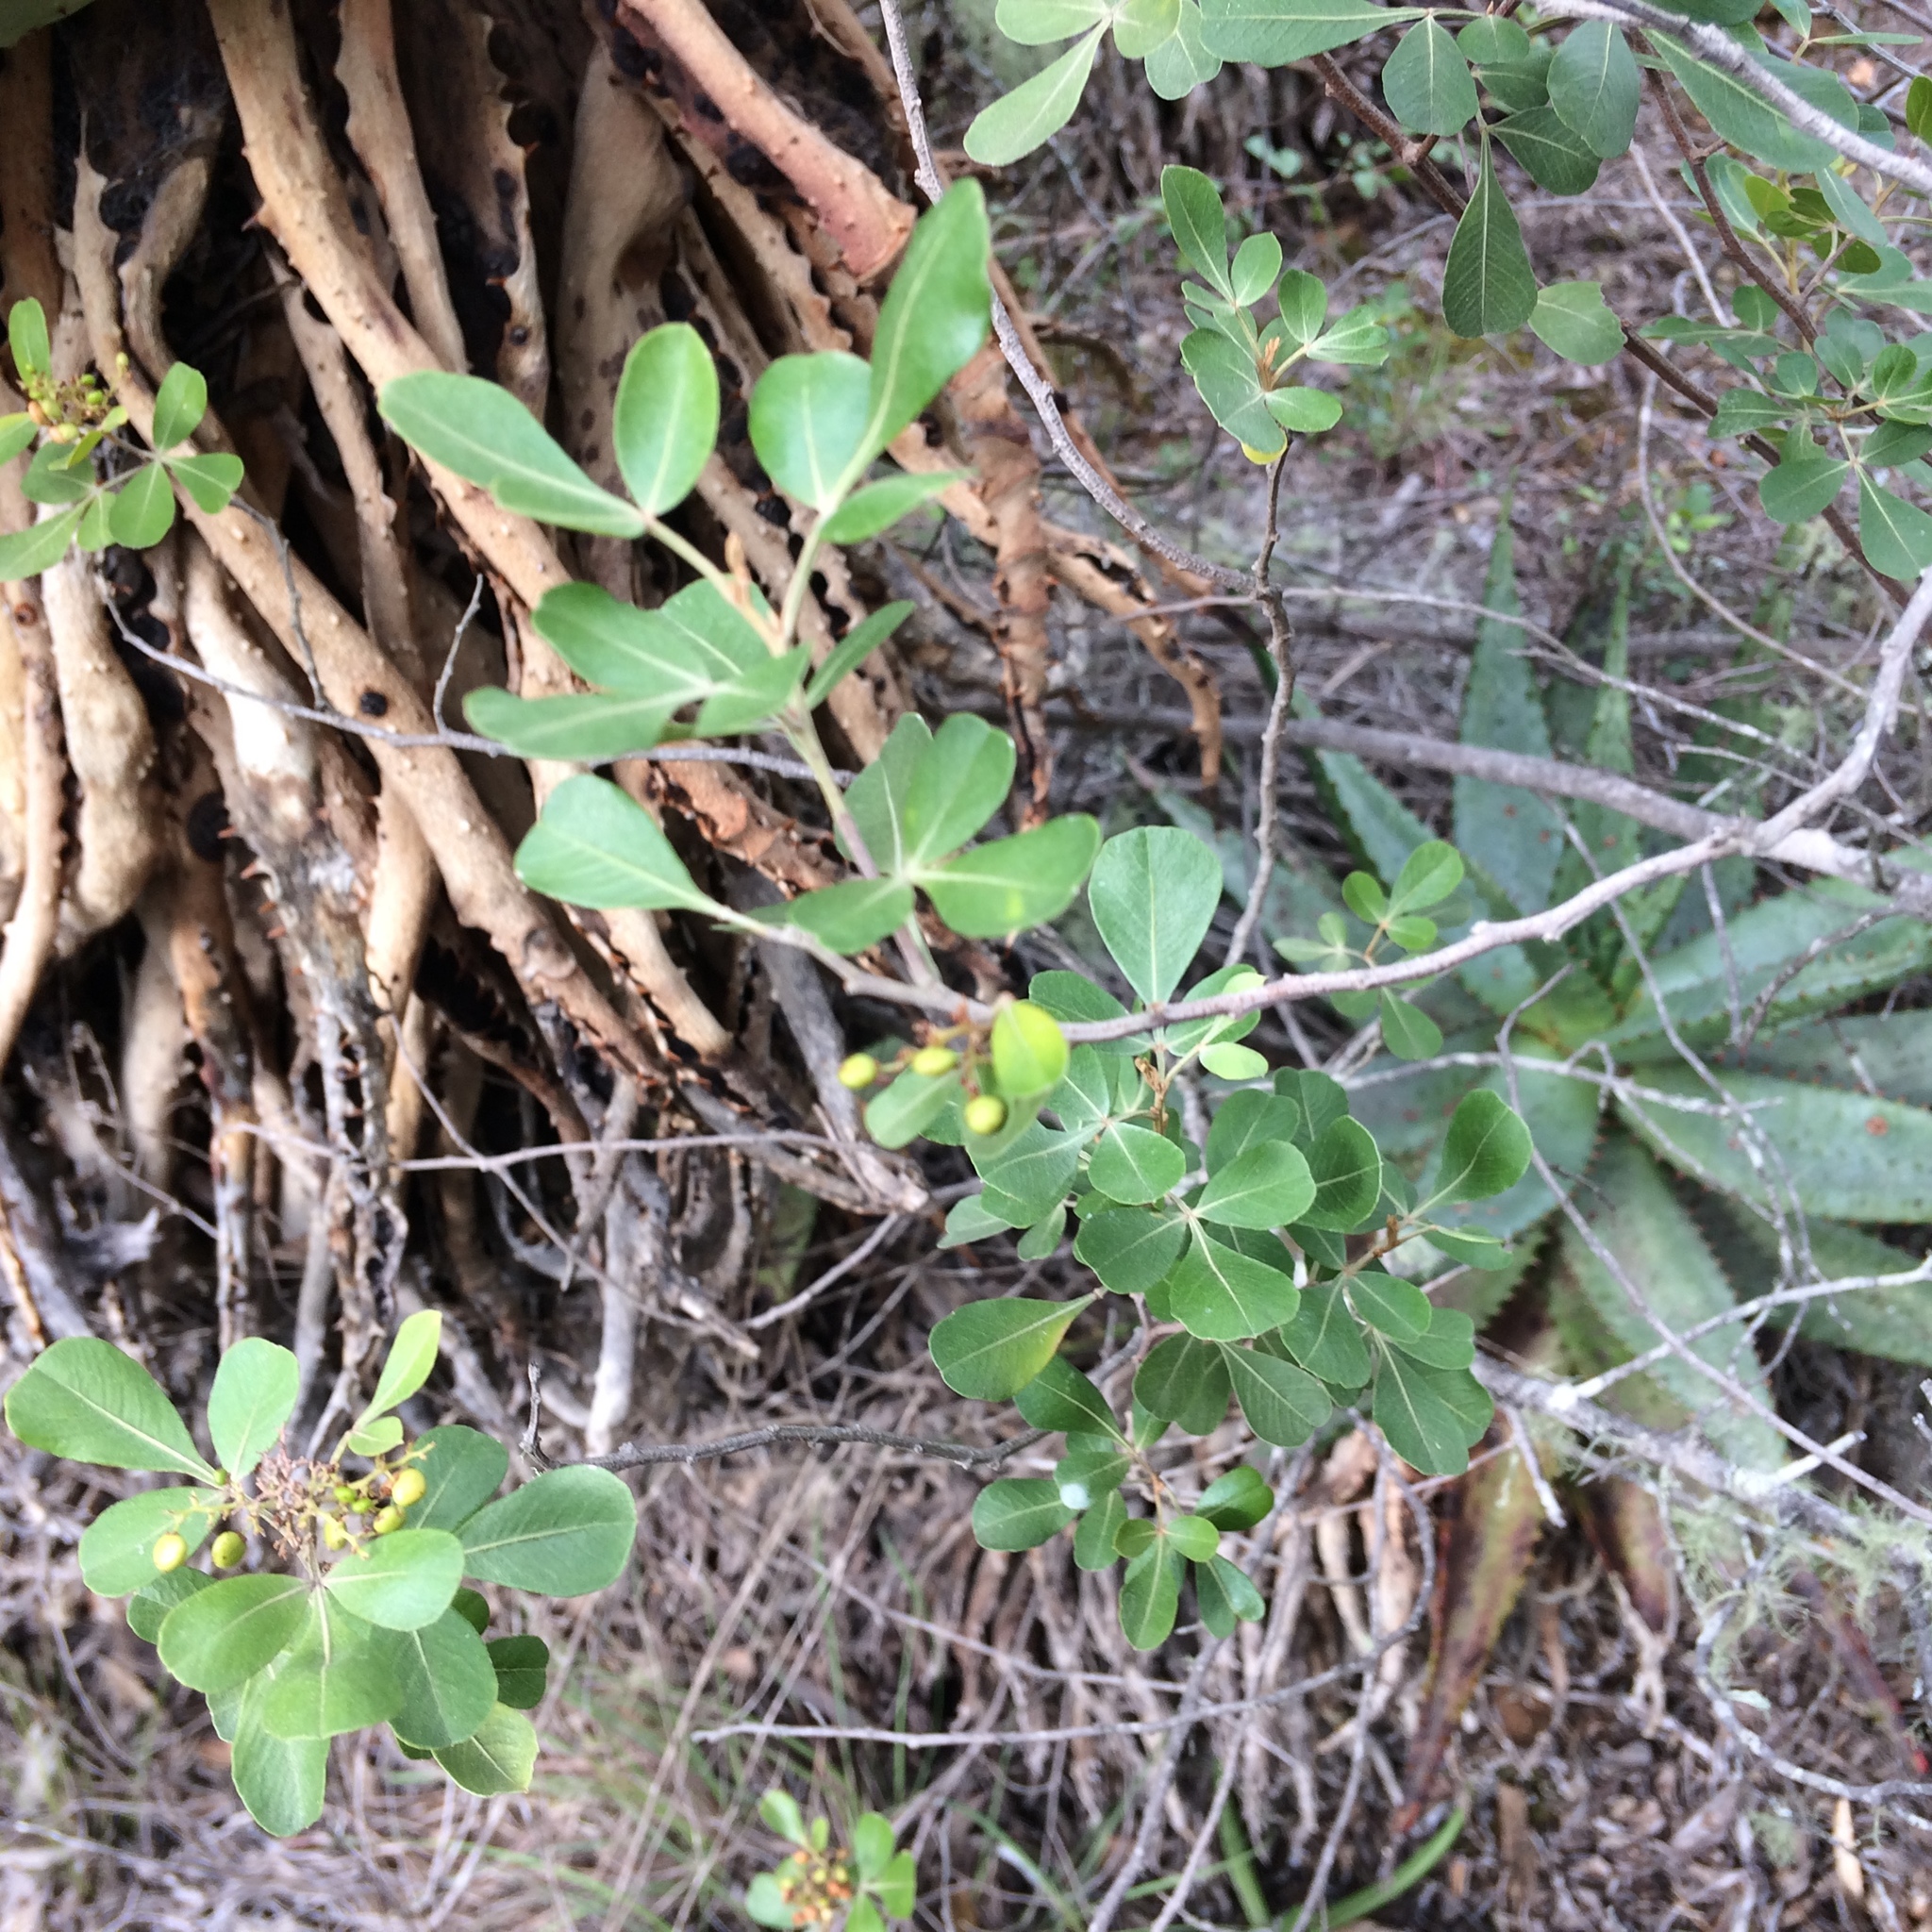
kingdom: Plantae
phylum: Tracheophyta
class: Magnoliopsida
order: Sapindales
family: Anacardiaceae
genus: Searsia
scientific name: Searsia lucida
